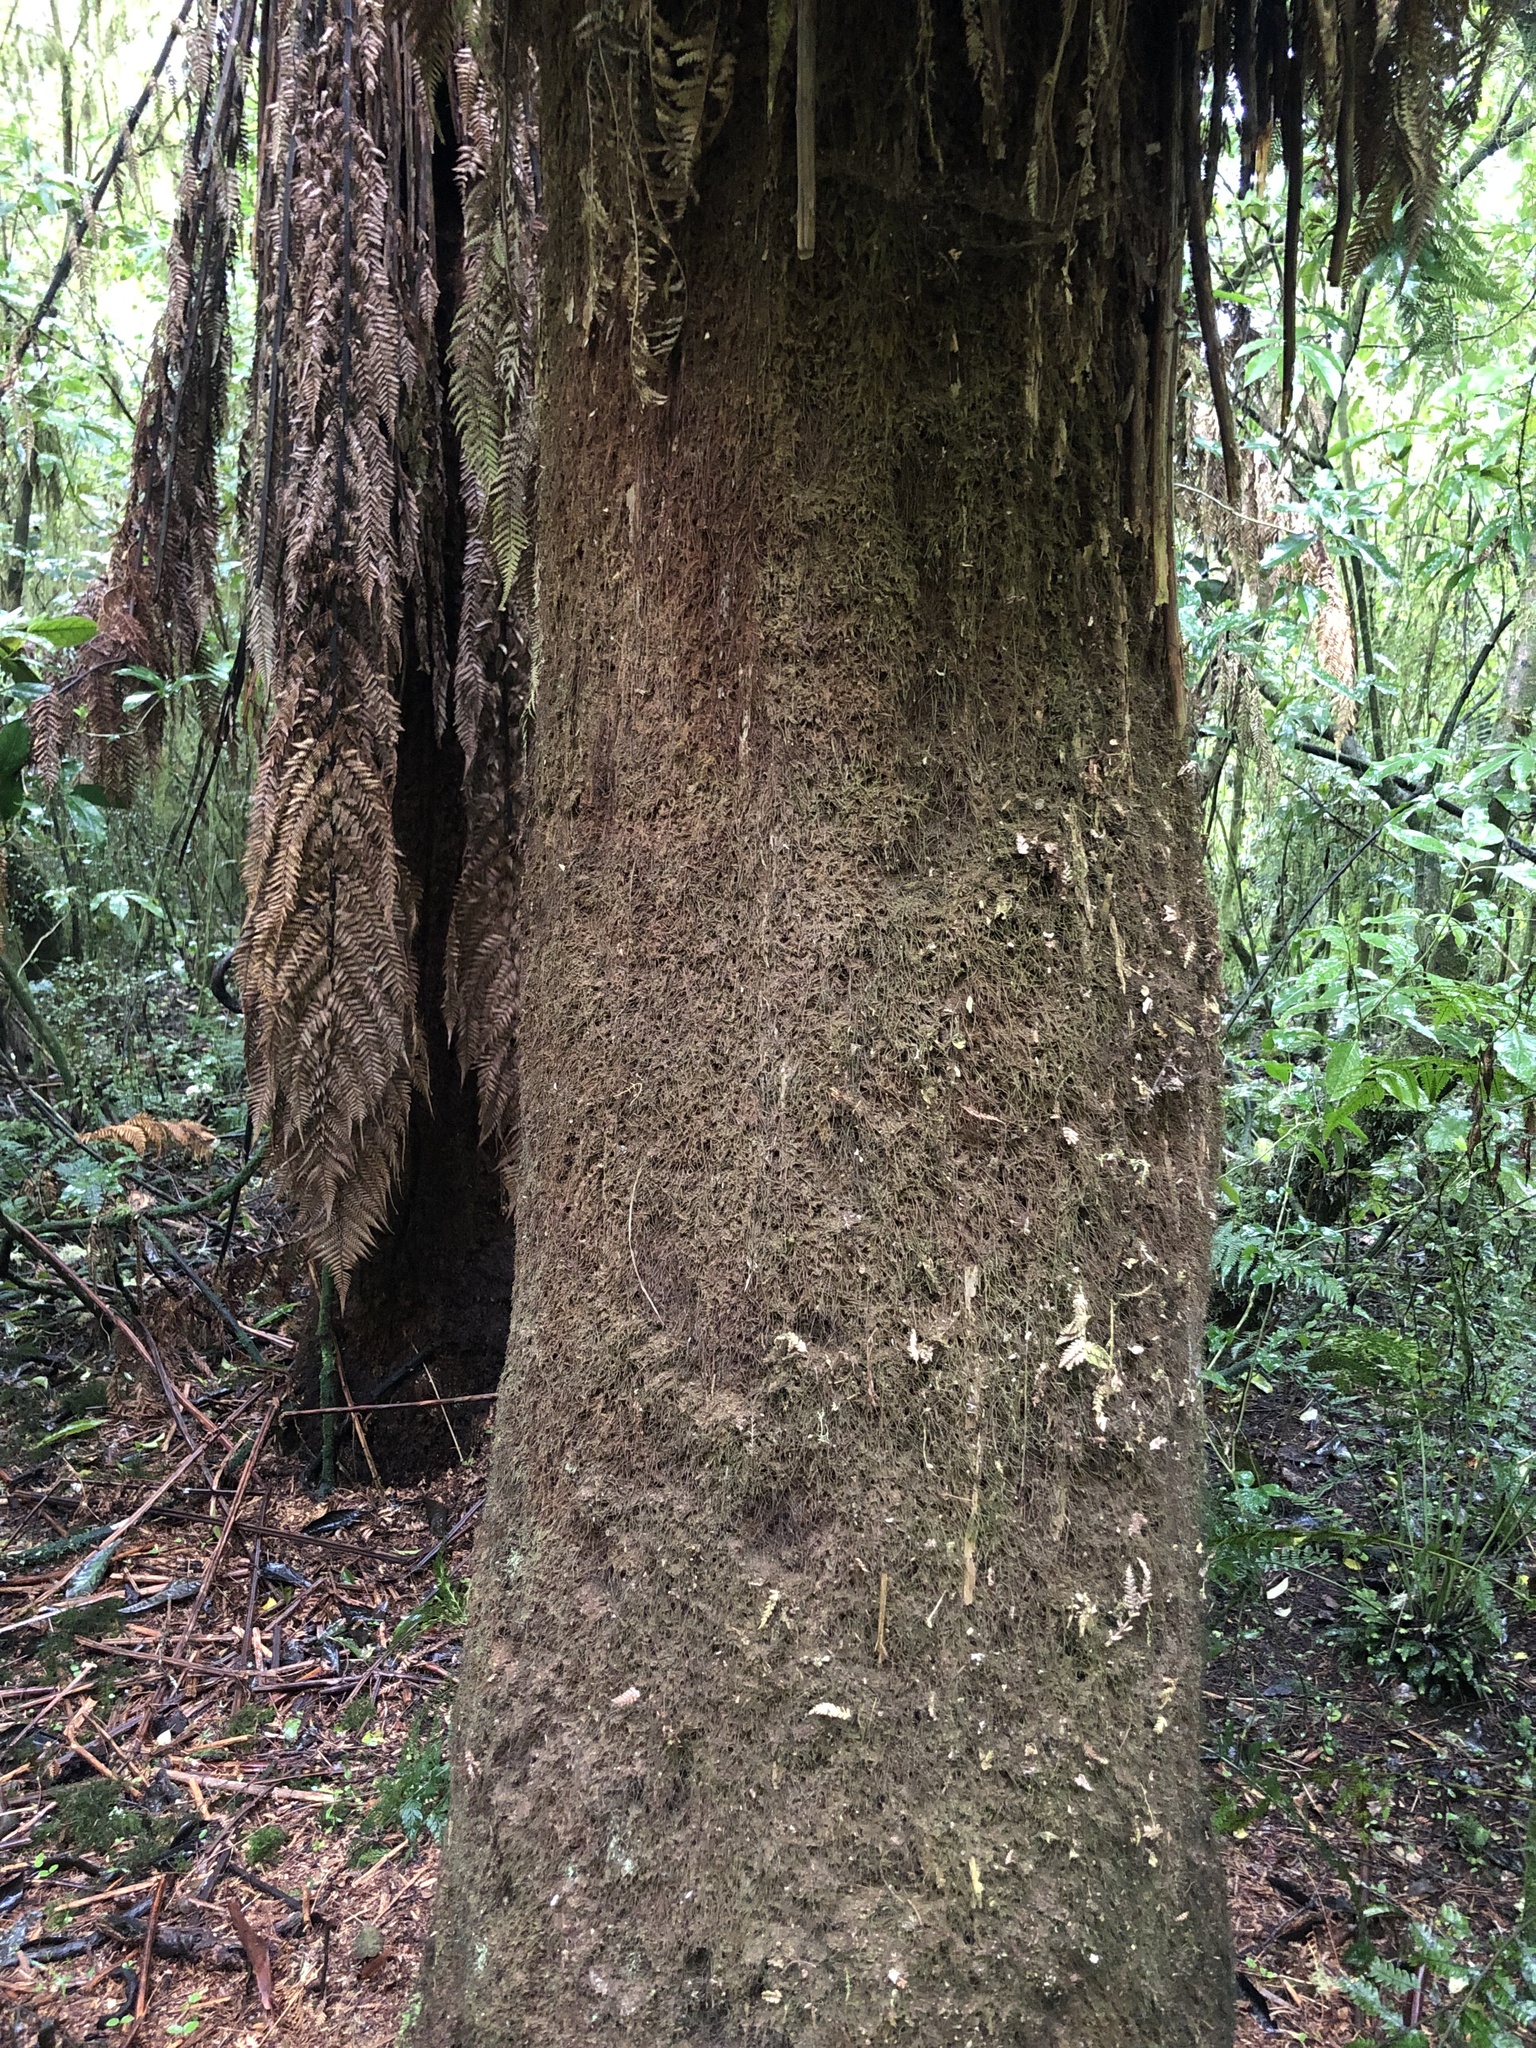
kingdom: Plantae
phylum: Tracheophyta
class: Polypodiopsida
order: Cyatheales
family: Dicksoniaceae
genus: Dicksonia
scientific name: Dicksonia fibrosa
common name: Golden tree fern
